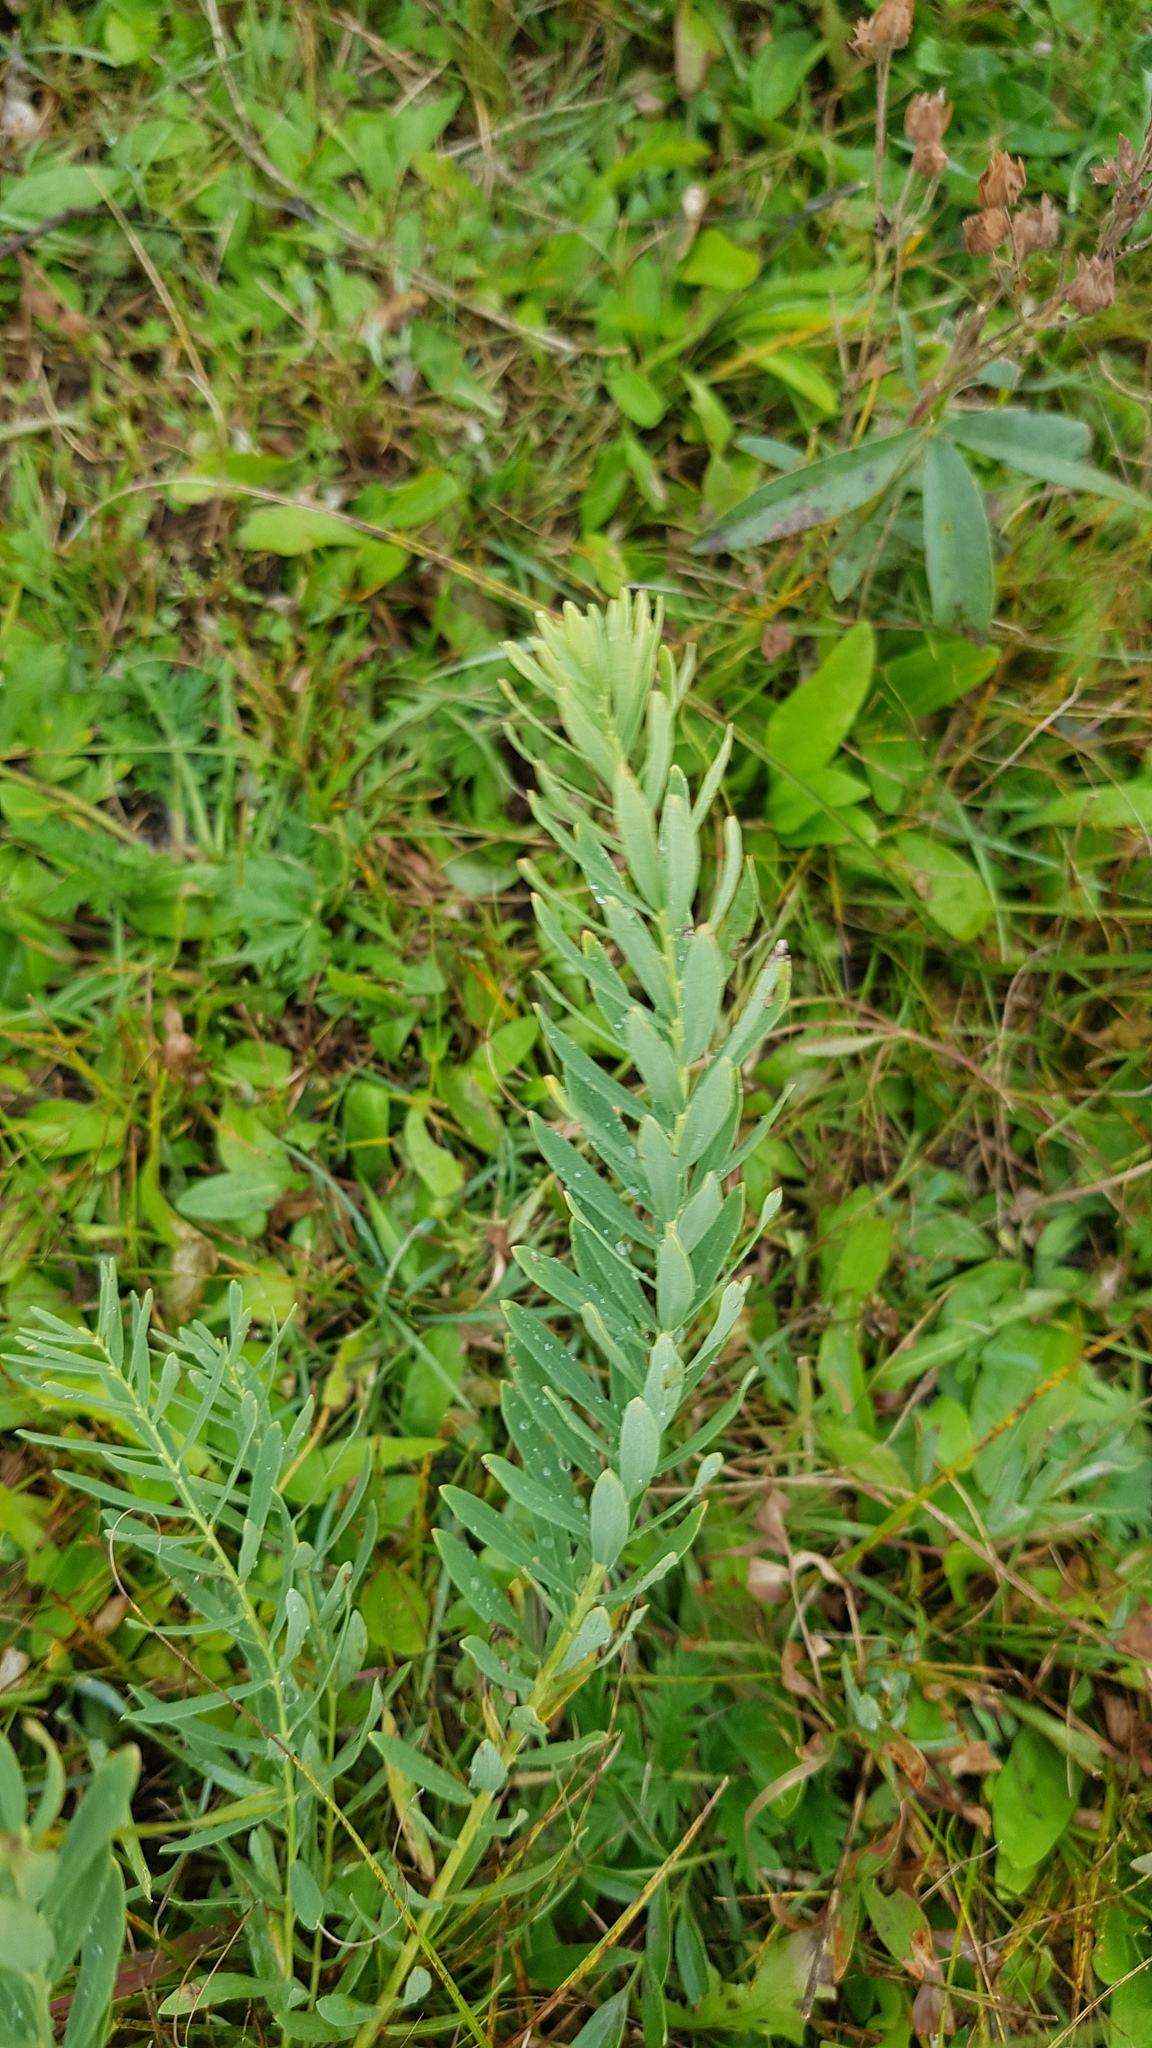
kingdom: Plantae
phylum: Tracheophyta
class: Magnoliopsida
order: Malvales
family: Thymelaeaceae
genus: Stellera
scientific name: Stellera chamaejasme
